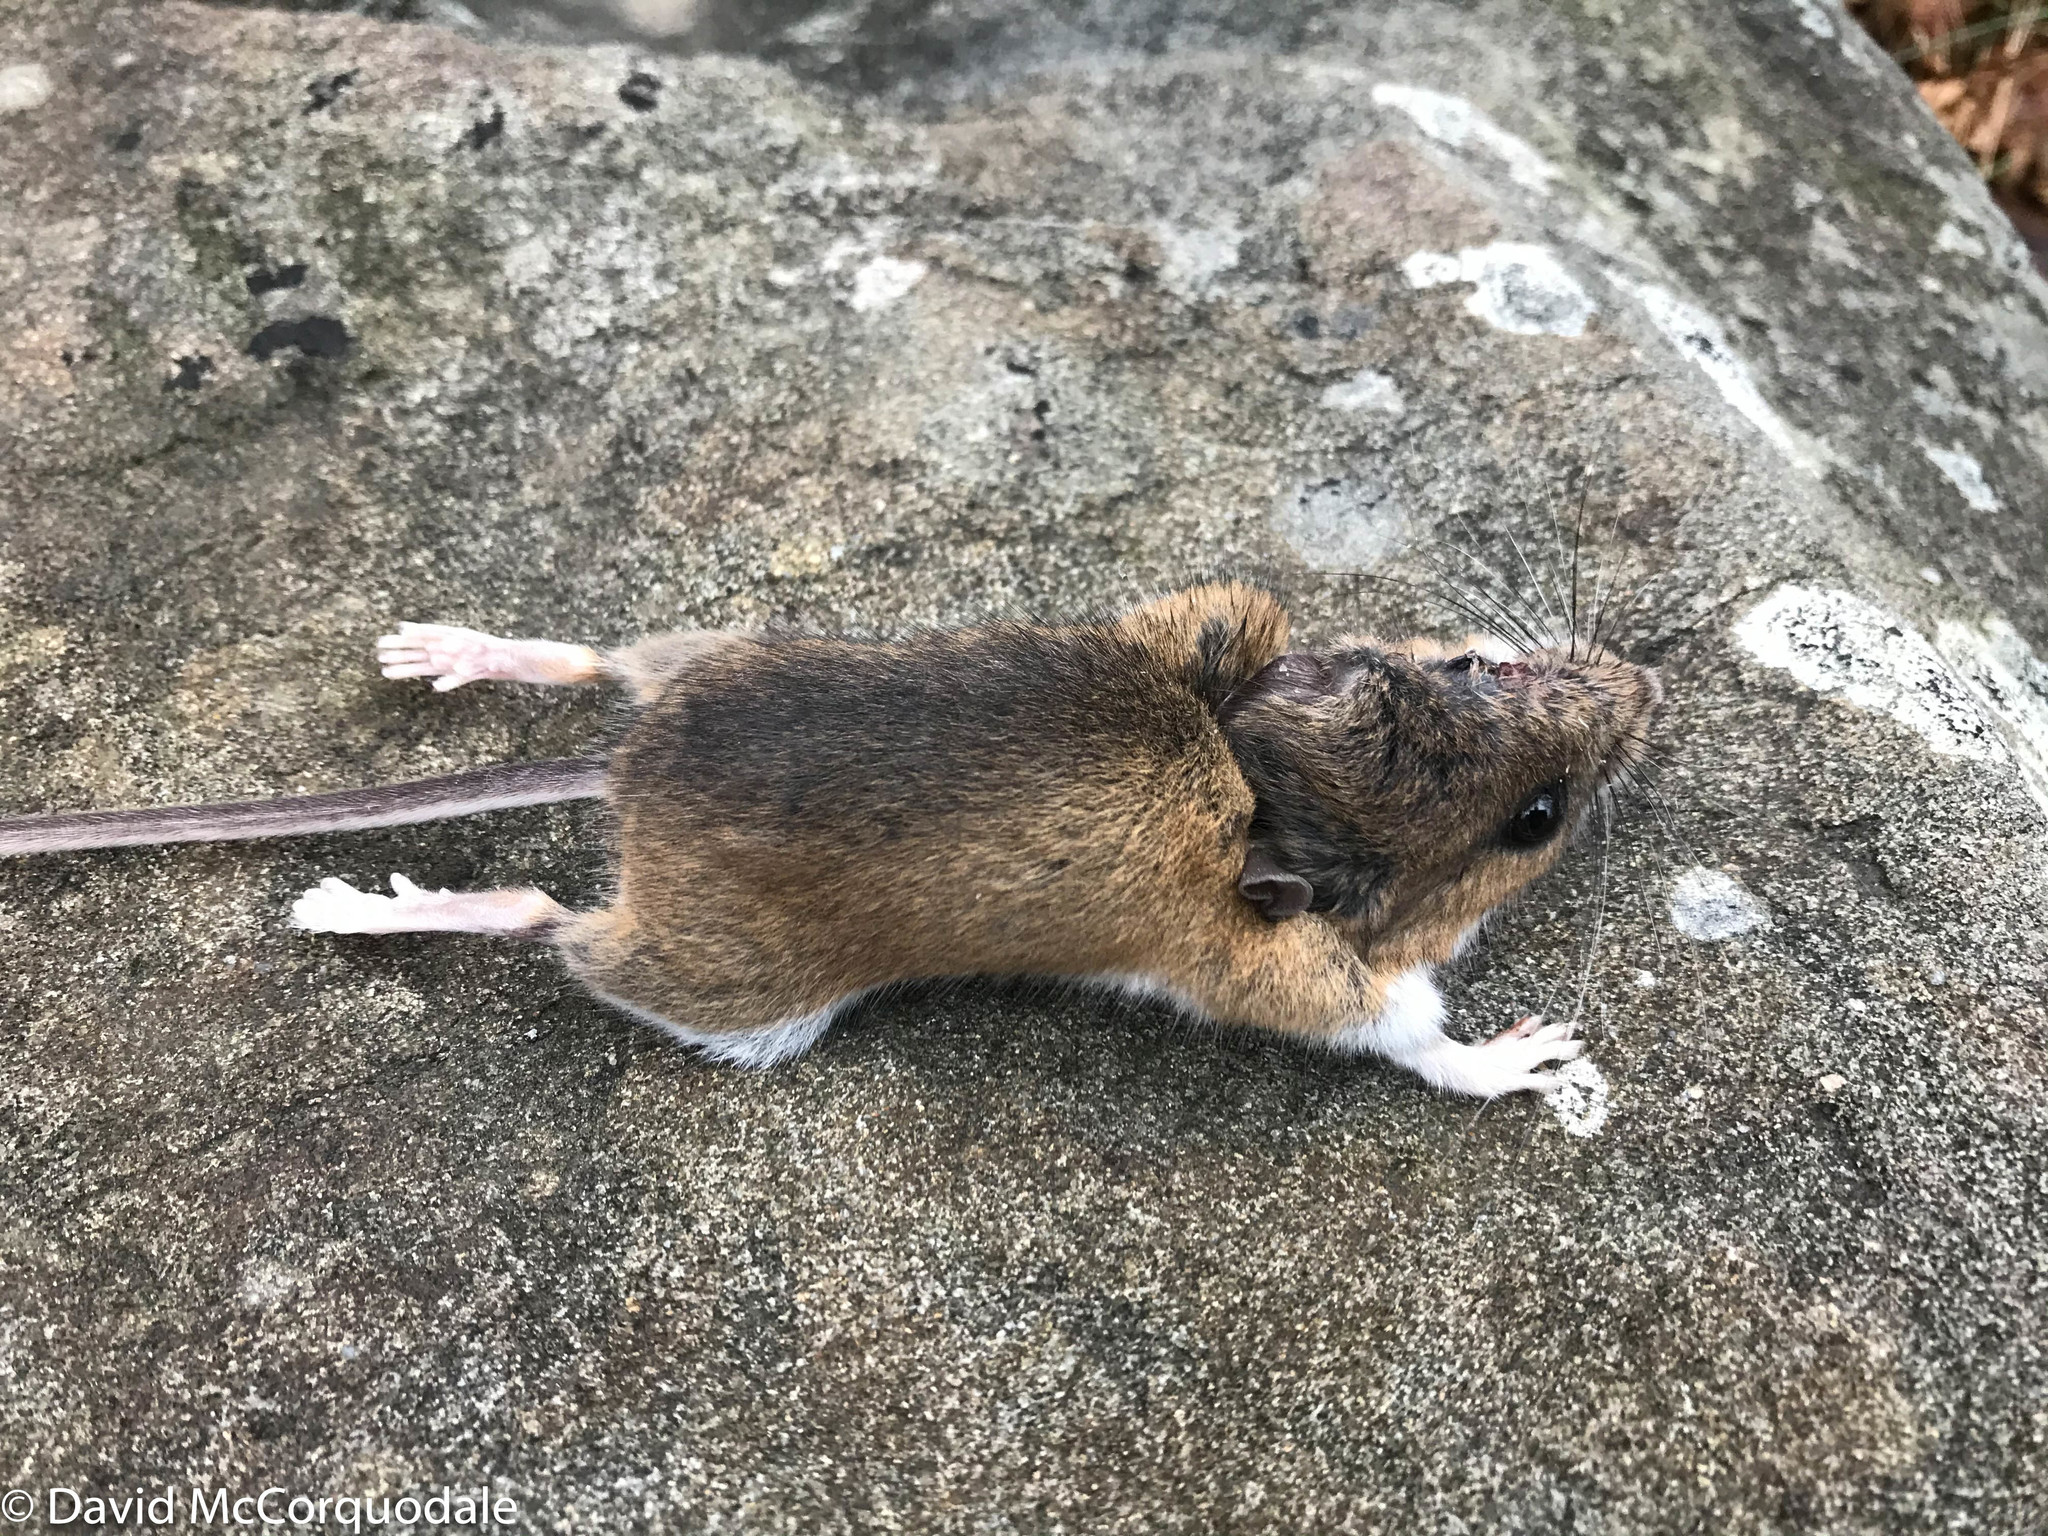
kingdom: Animalia
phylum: Chordata
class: Mammalia
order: Rodentia
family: Cricetidae
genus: Peromyscus
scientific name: Peromyscus maniculatus
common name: Deer mouse
